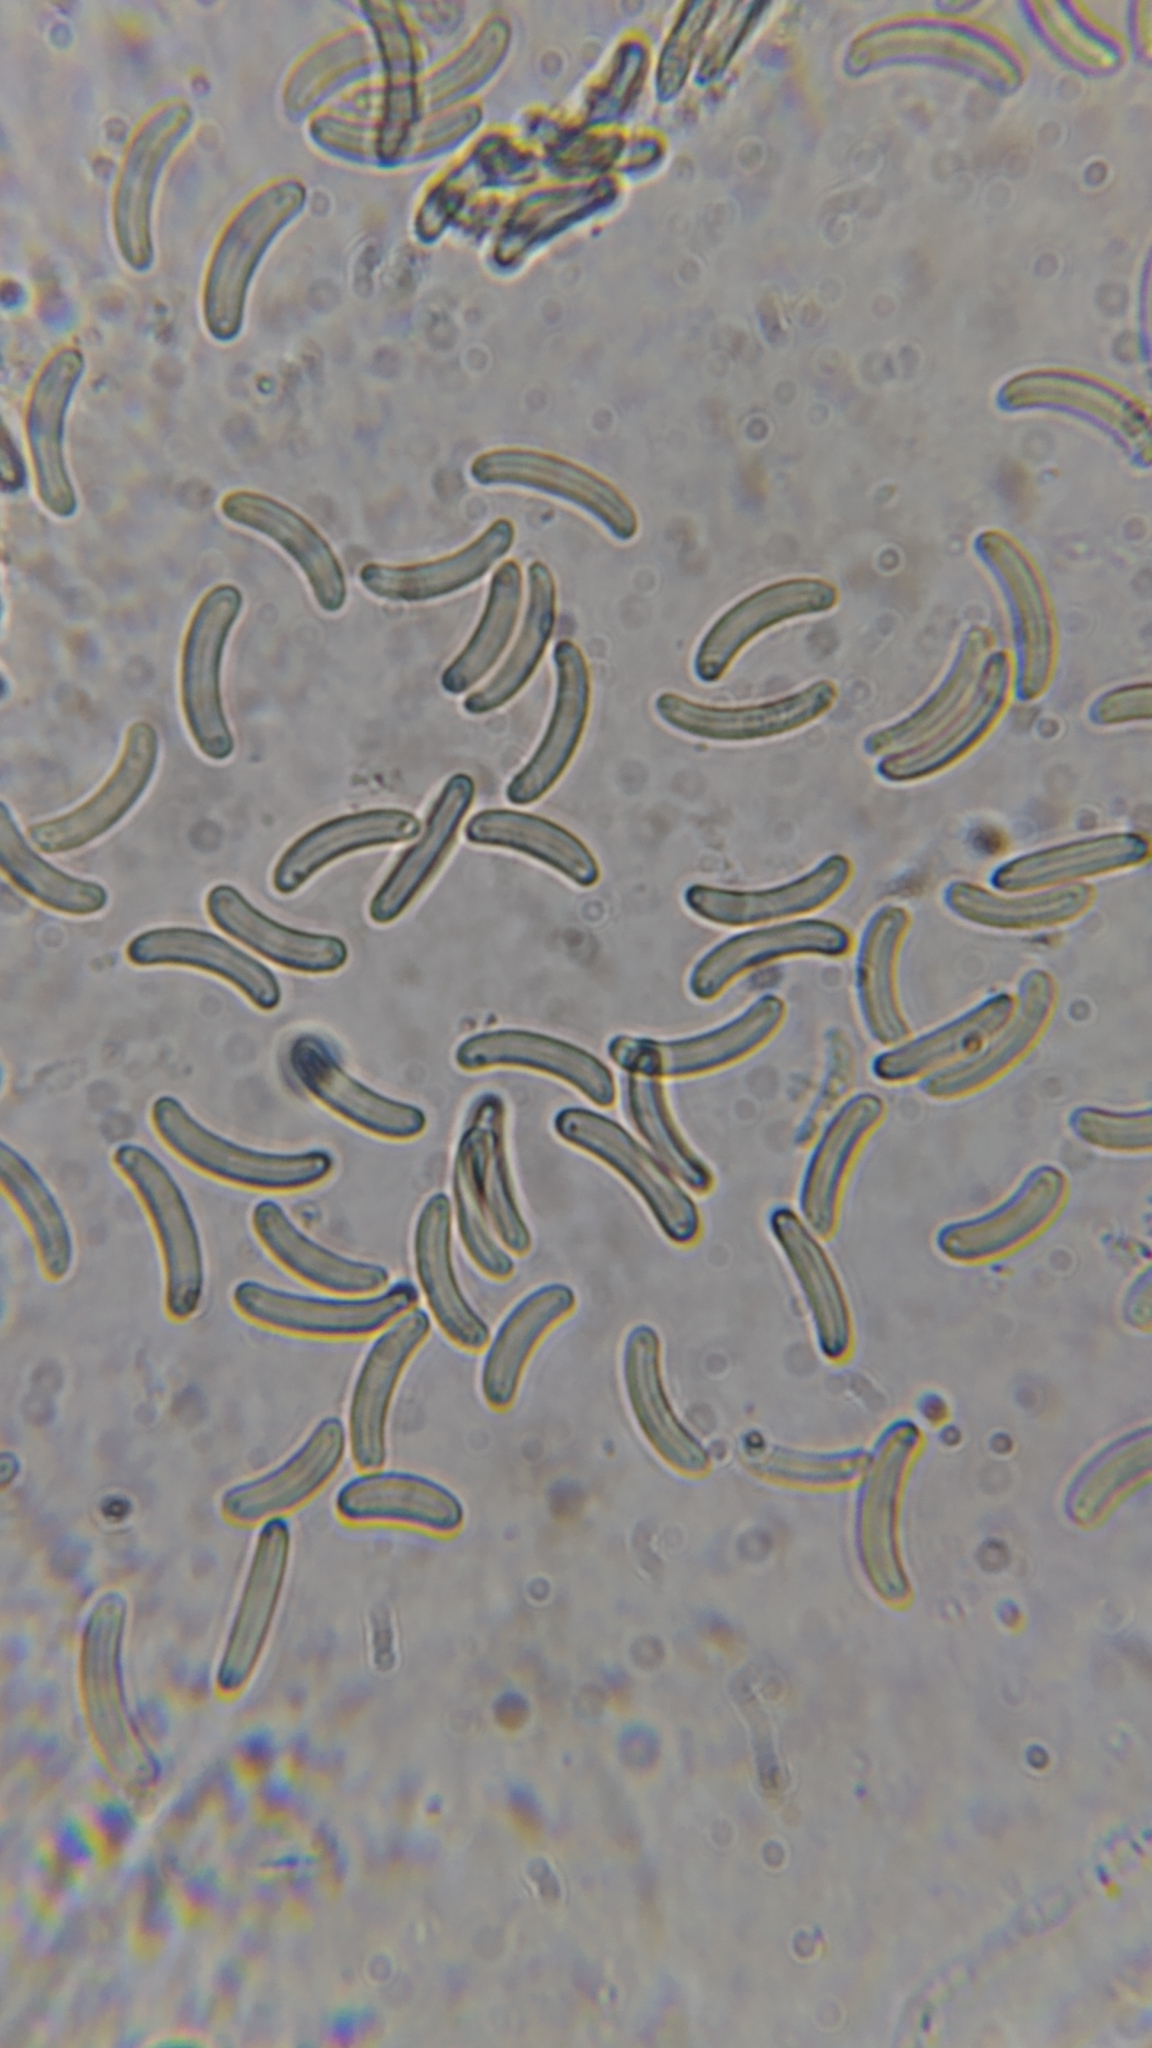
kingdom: Fungi
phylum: Ascomycota
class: Sordariomycetes
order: Xylariales
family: Diatrypaceae
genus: Diatrype
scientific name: Diatrype virescens
